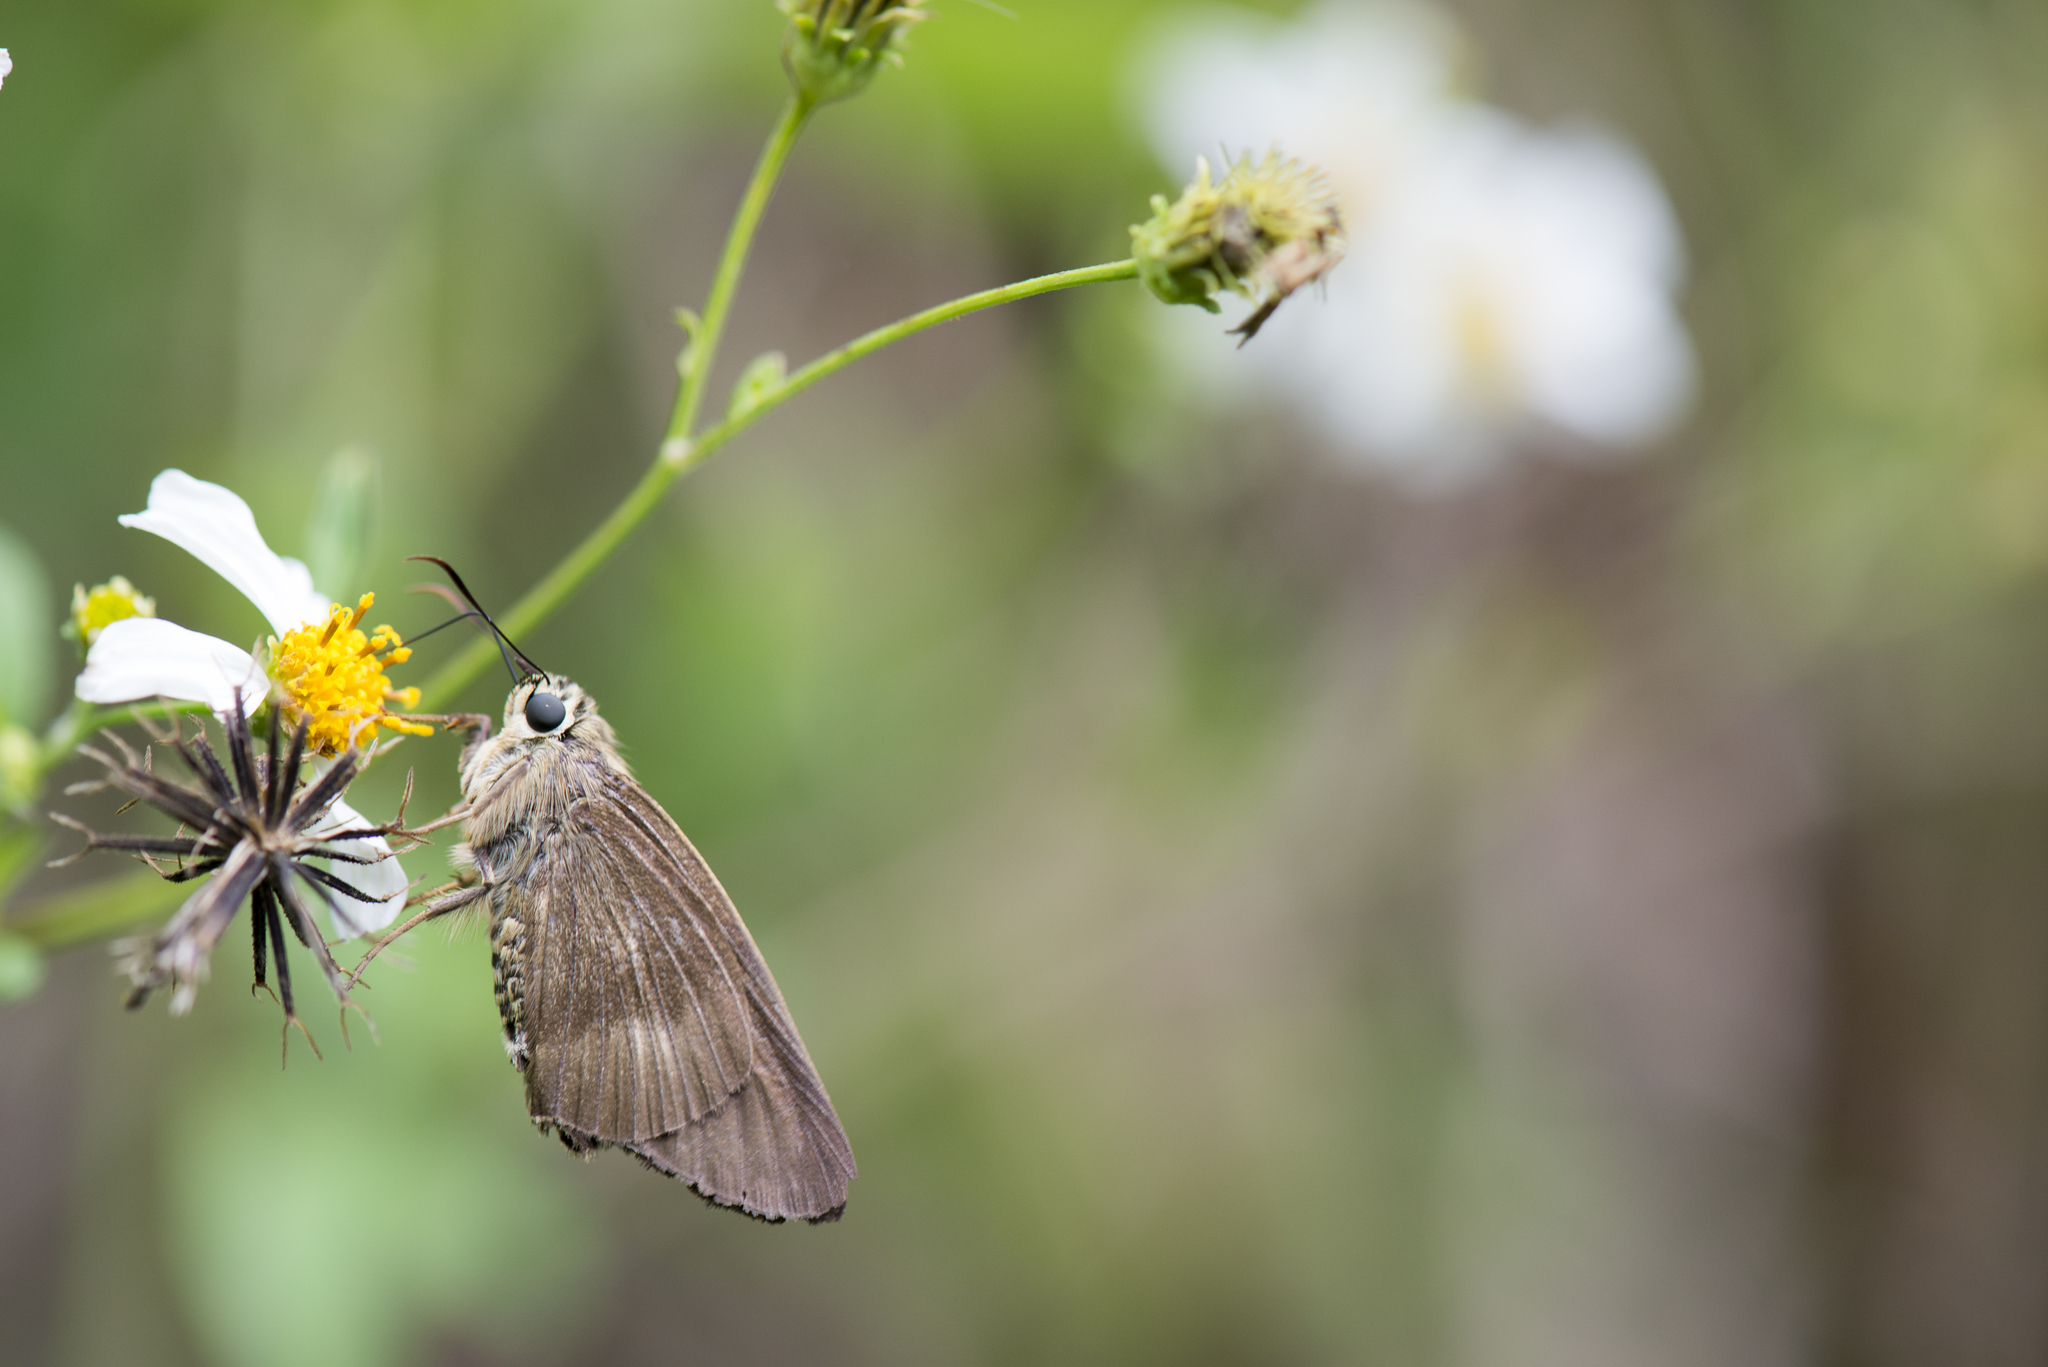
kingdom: Animalia
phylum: Arthropoda
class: Insecta
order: Lepidoptera
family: Hesperiidae
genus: Badamia
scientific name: Badamia exclamationis
